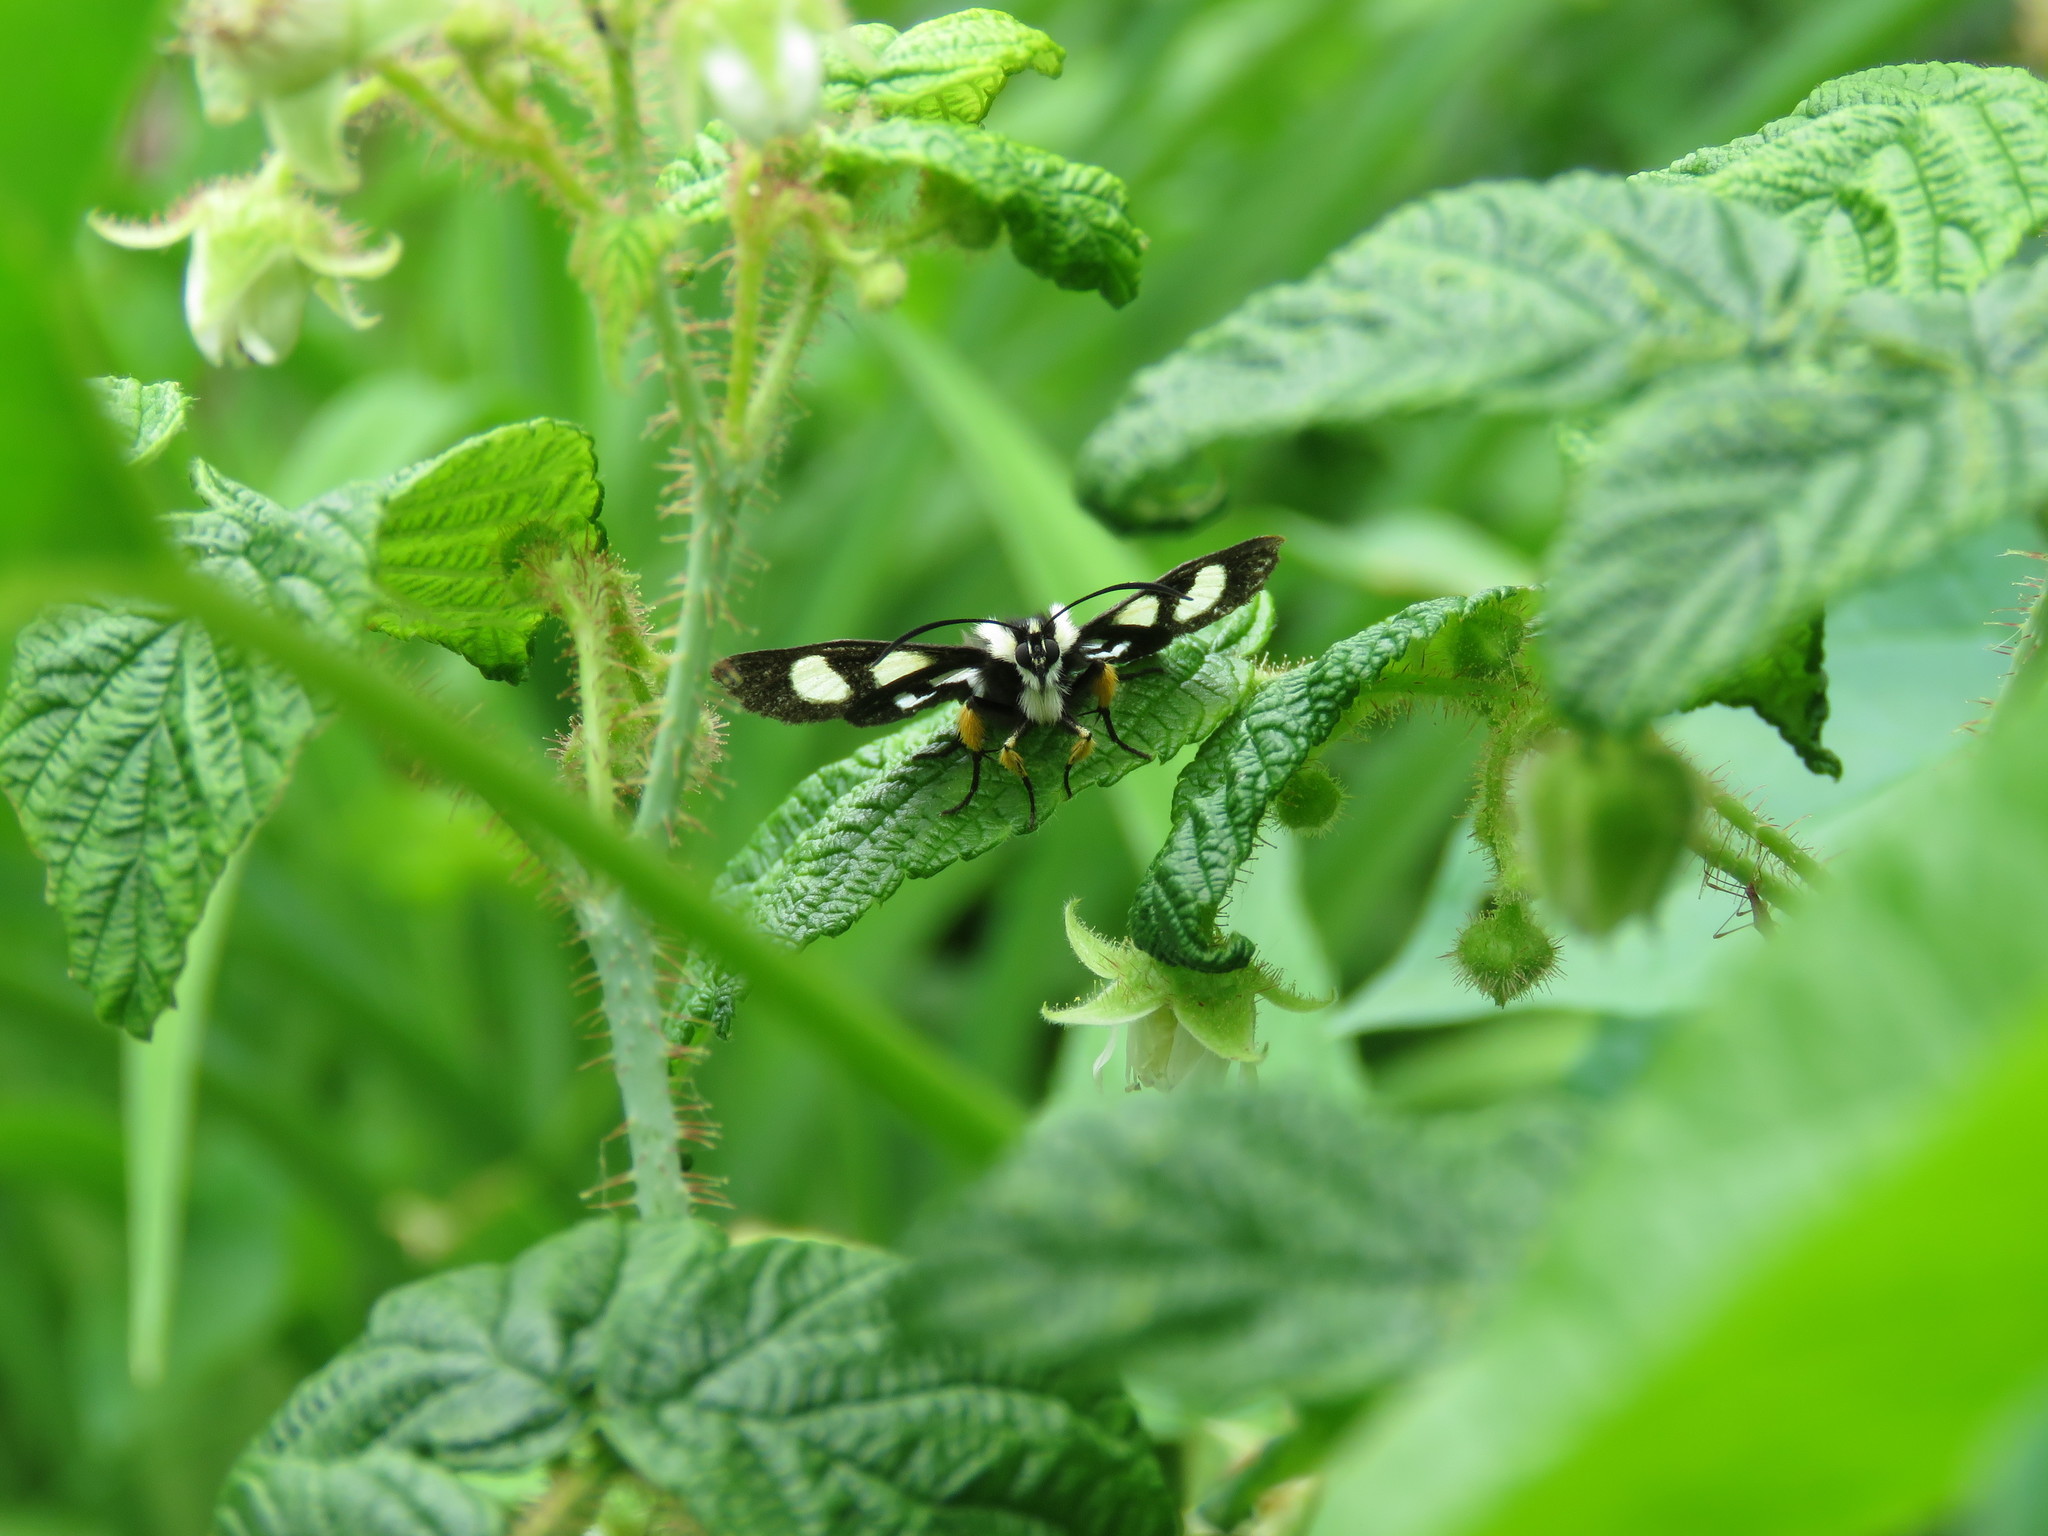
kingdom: Animalia
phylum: Arthropoda
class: Insecta
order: Lepidoptera
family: Noctuidae
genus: Alypia
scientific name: Alypia octomaculata
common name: Eight-spotted forester
